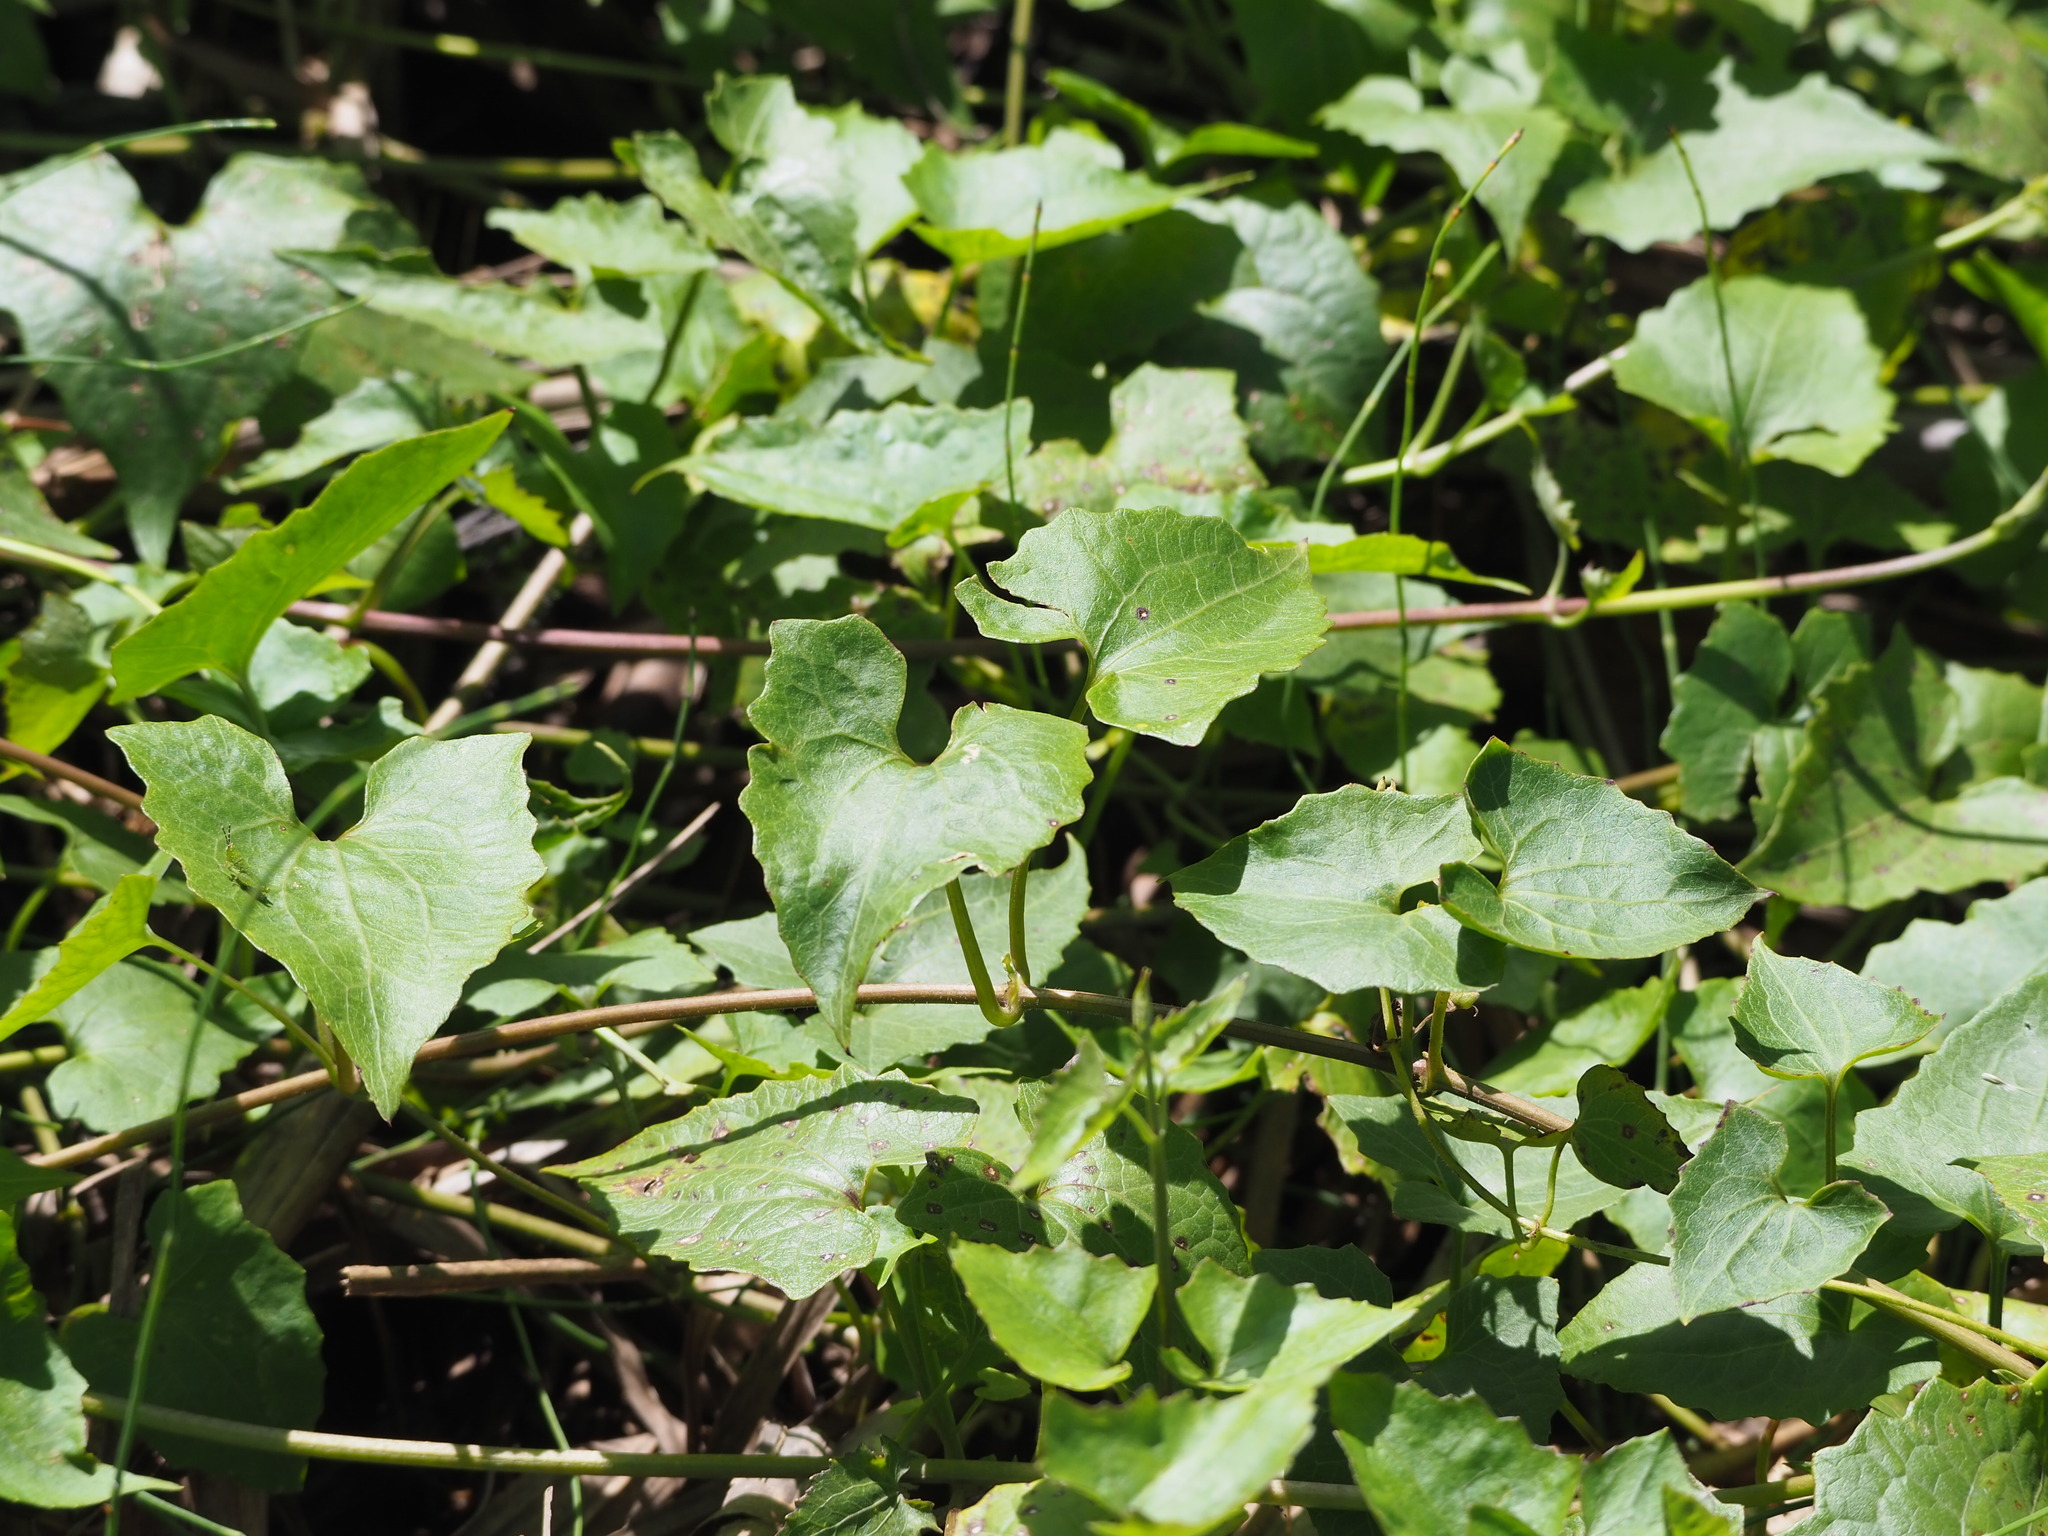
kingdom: Plantae
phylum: Tracheophyta
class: Magnoliopsida
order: Asterales
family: Asteraceae
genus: Mikania
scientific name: Mikania micrantha
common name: Mile-a-minute
